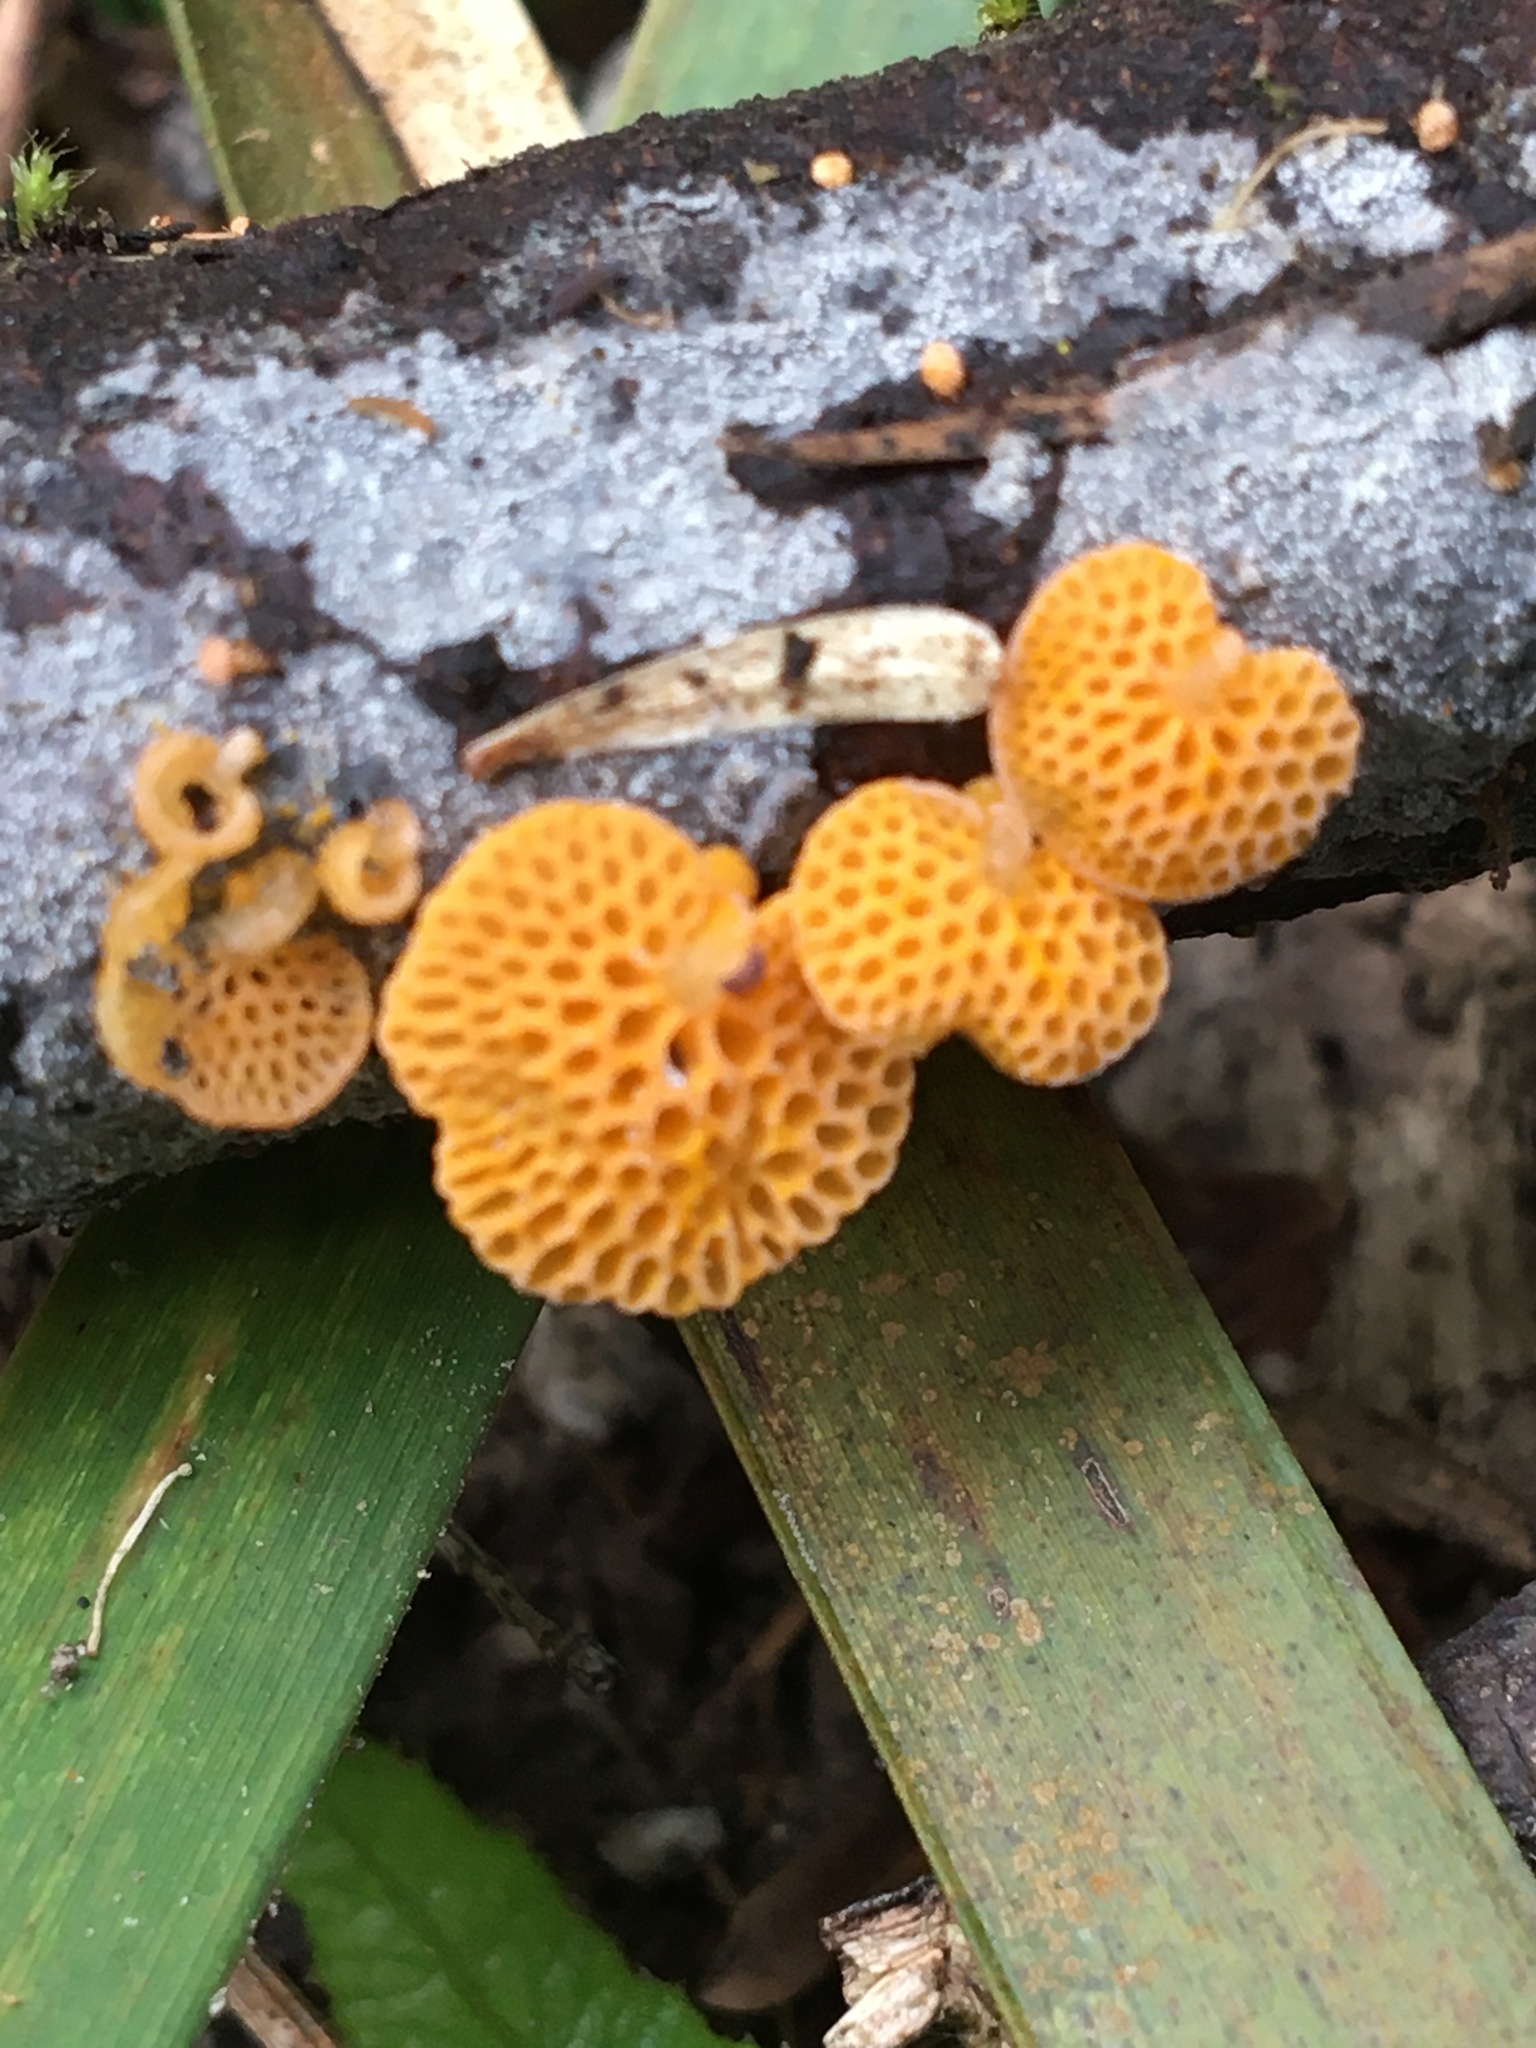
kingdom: Fungi
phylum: Basidiomycota
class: Agaricomycetes
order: Agaricales
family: Mycenaceae
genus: Favolaschia
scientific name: Favolaschia claudopus
